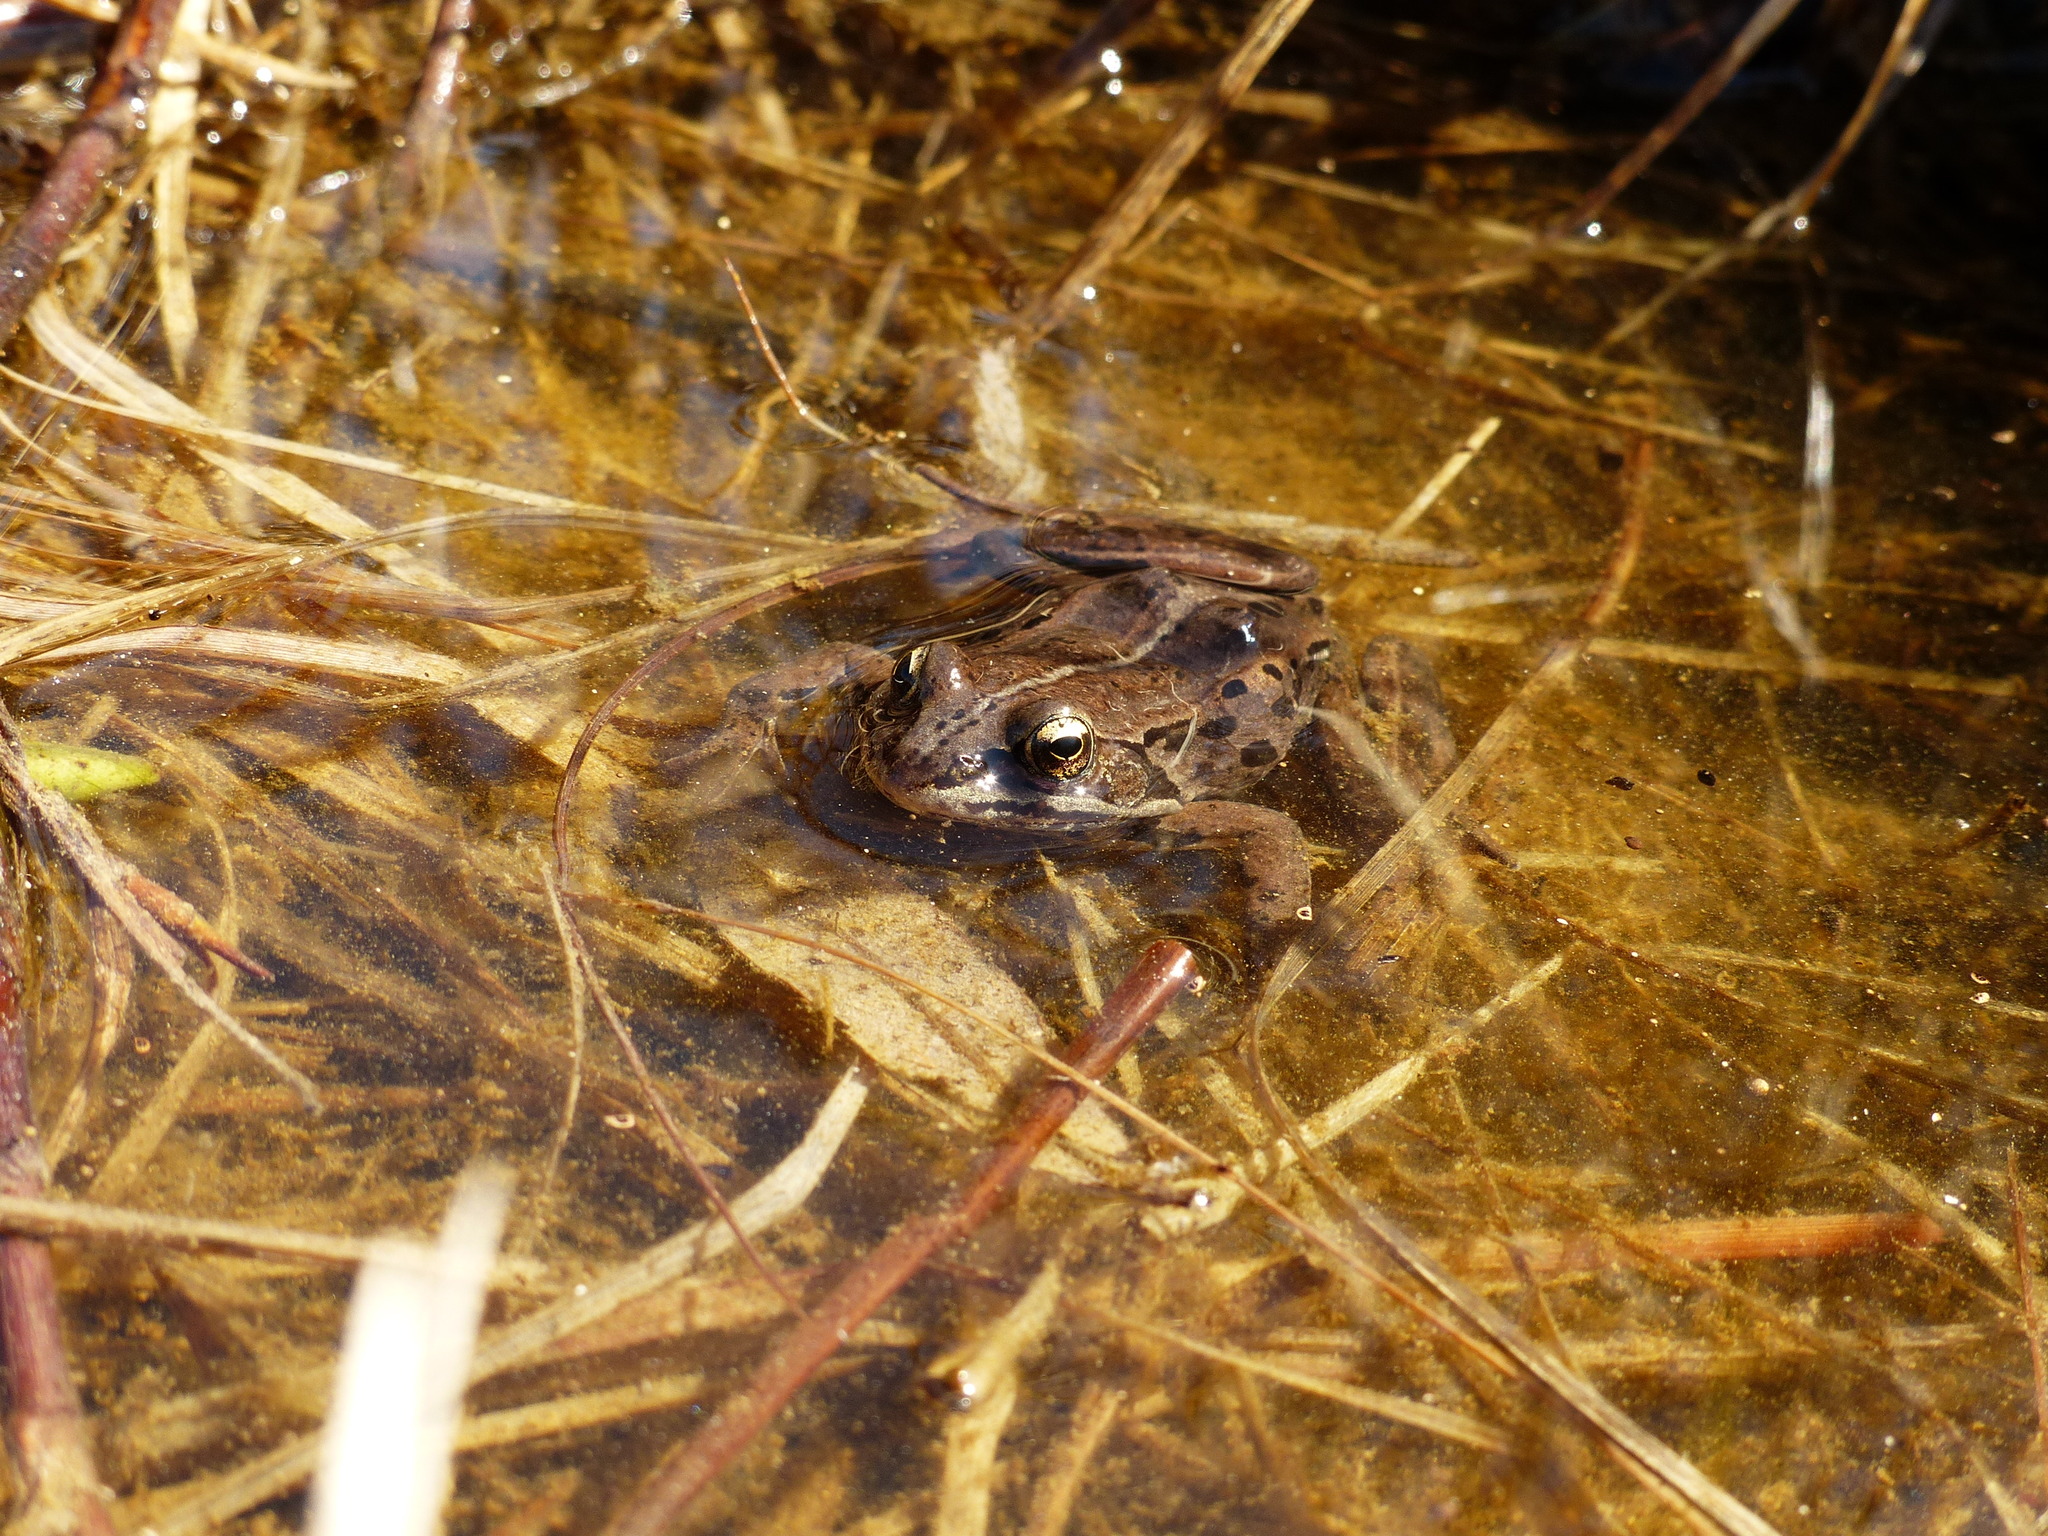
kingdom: Animalia
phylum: Chordata
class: Amphibia
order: Anura
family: Ranidae
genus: Lithobates
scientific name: Lithobates sylvaticus
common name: Wood frog
